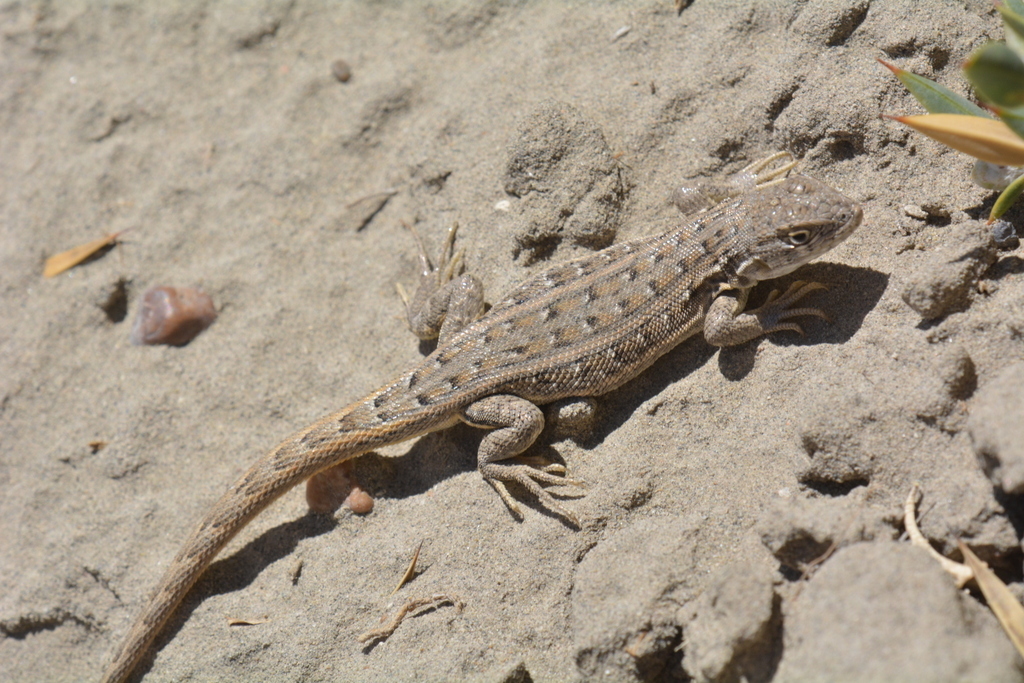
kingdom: Animalia
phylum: Chordata
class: Squamata
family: Liolaemidae
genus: Liolaemus
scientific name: Liolaemus darwinii
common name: Darwin's tree iguana
